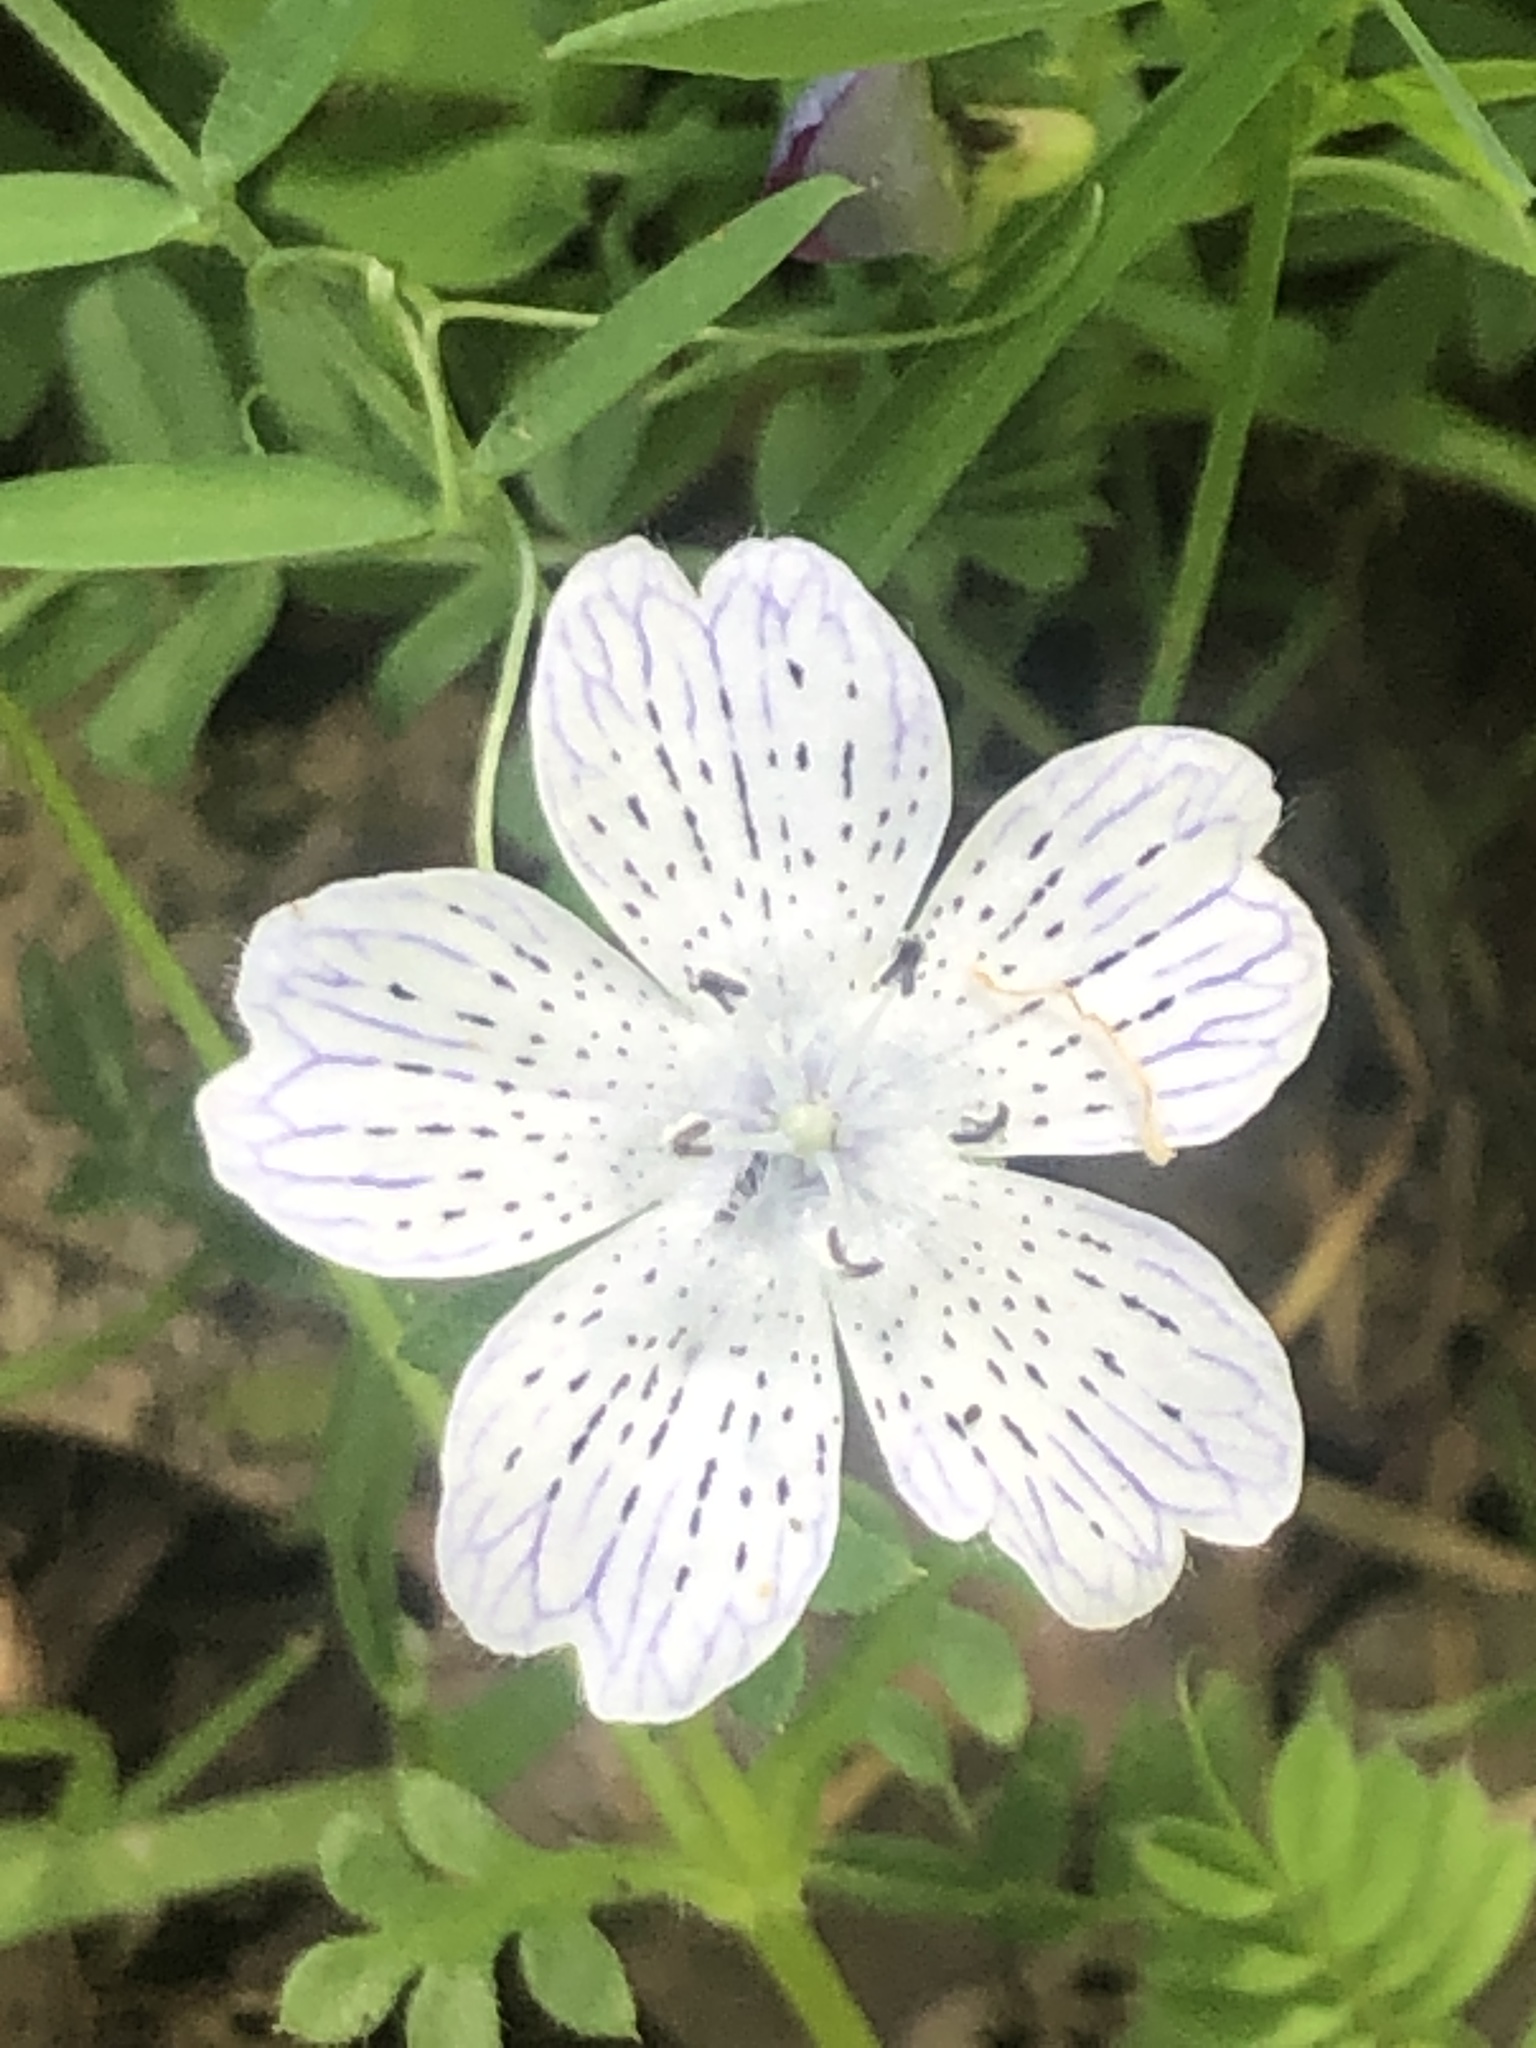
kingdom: Plantae
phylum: Tracheophyta
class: Magnoliopsida
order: Boraginales
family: Hydrophyllaceae
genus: Nemophila
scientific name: Nemophila menziesii
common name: Baby's-blue-eyes
